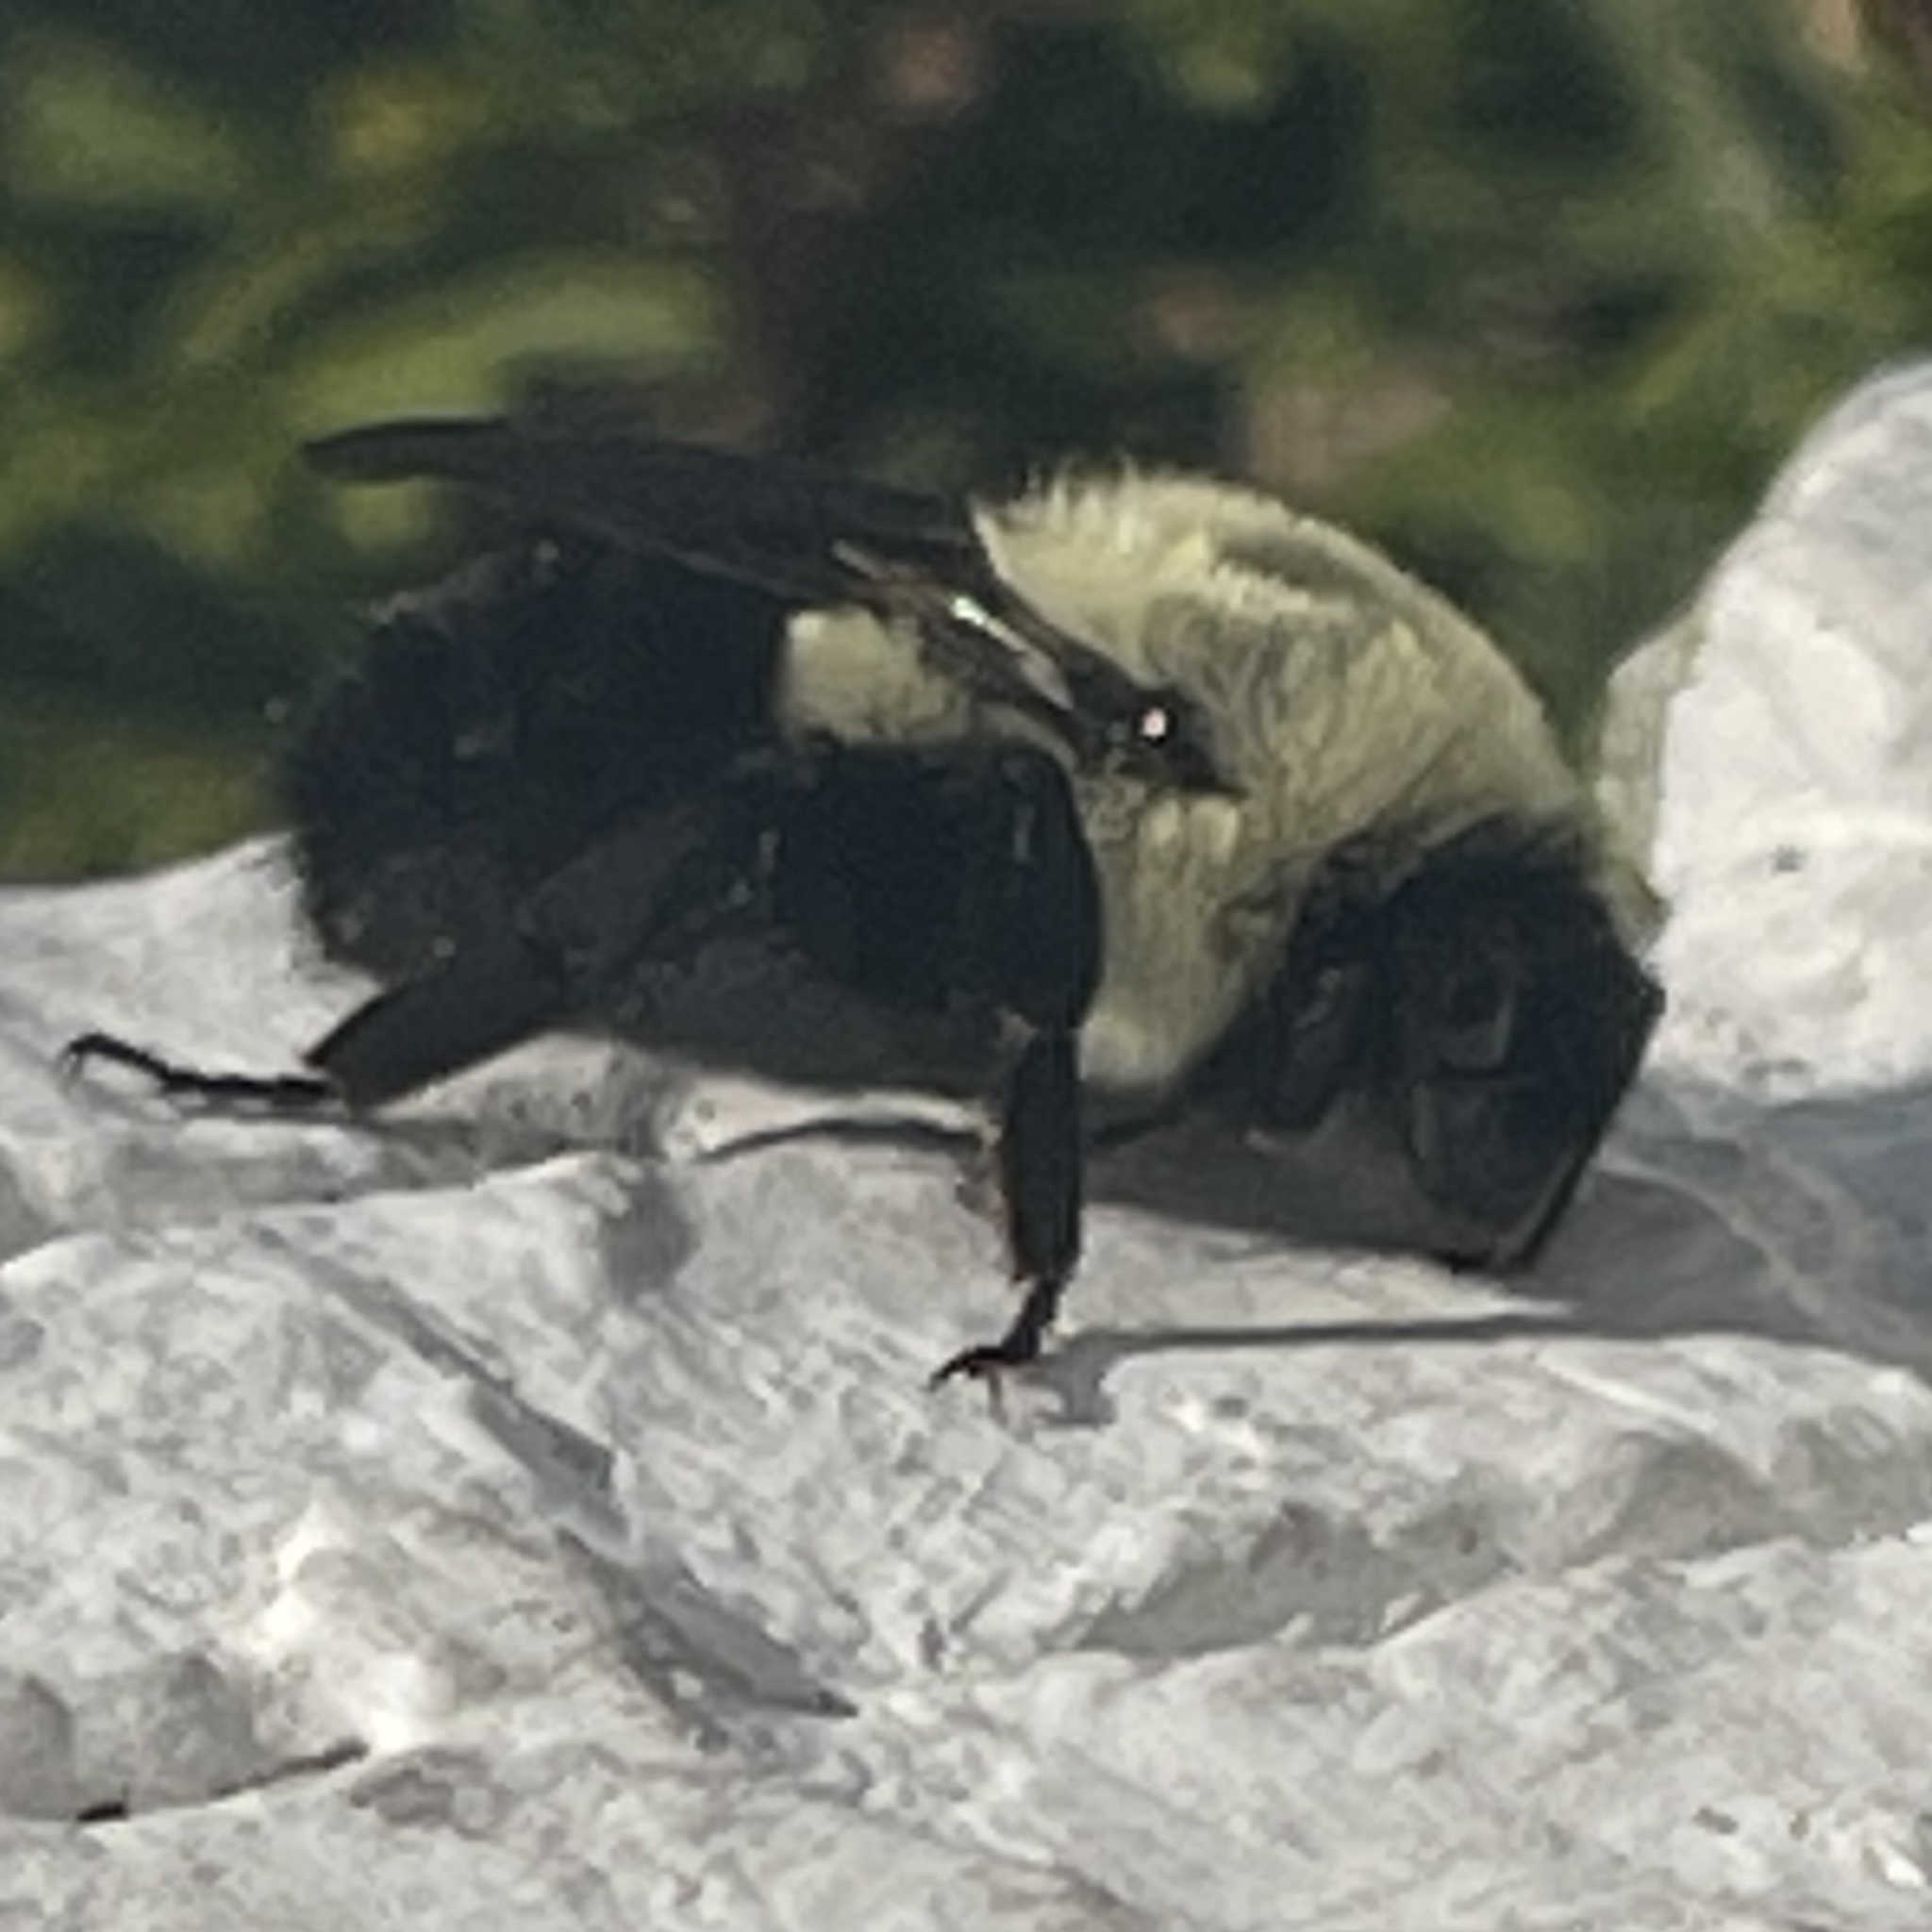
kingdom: Animalia
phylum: Arthropoda
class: Insecta
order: Hymenoptera
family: Apidae
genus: Bombus
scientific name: Bombus impatiens
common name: Common eastern bumble bee
